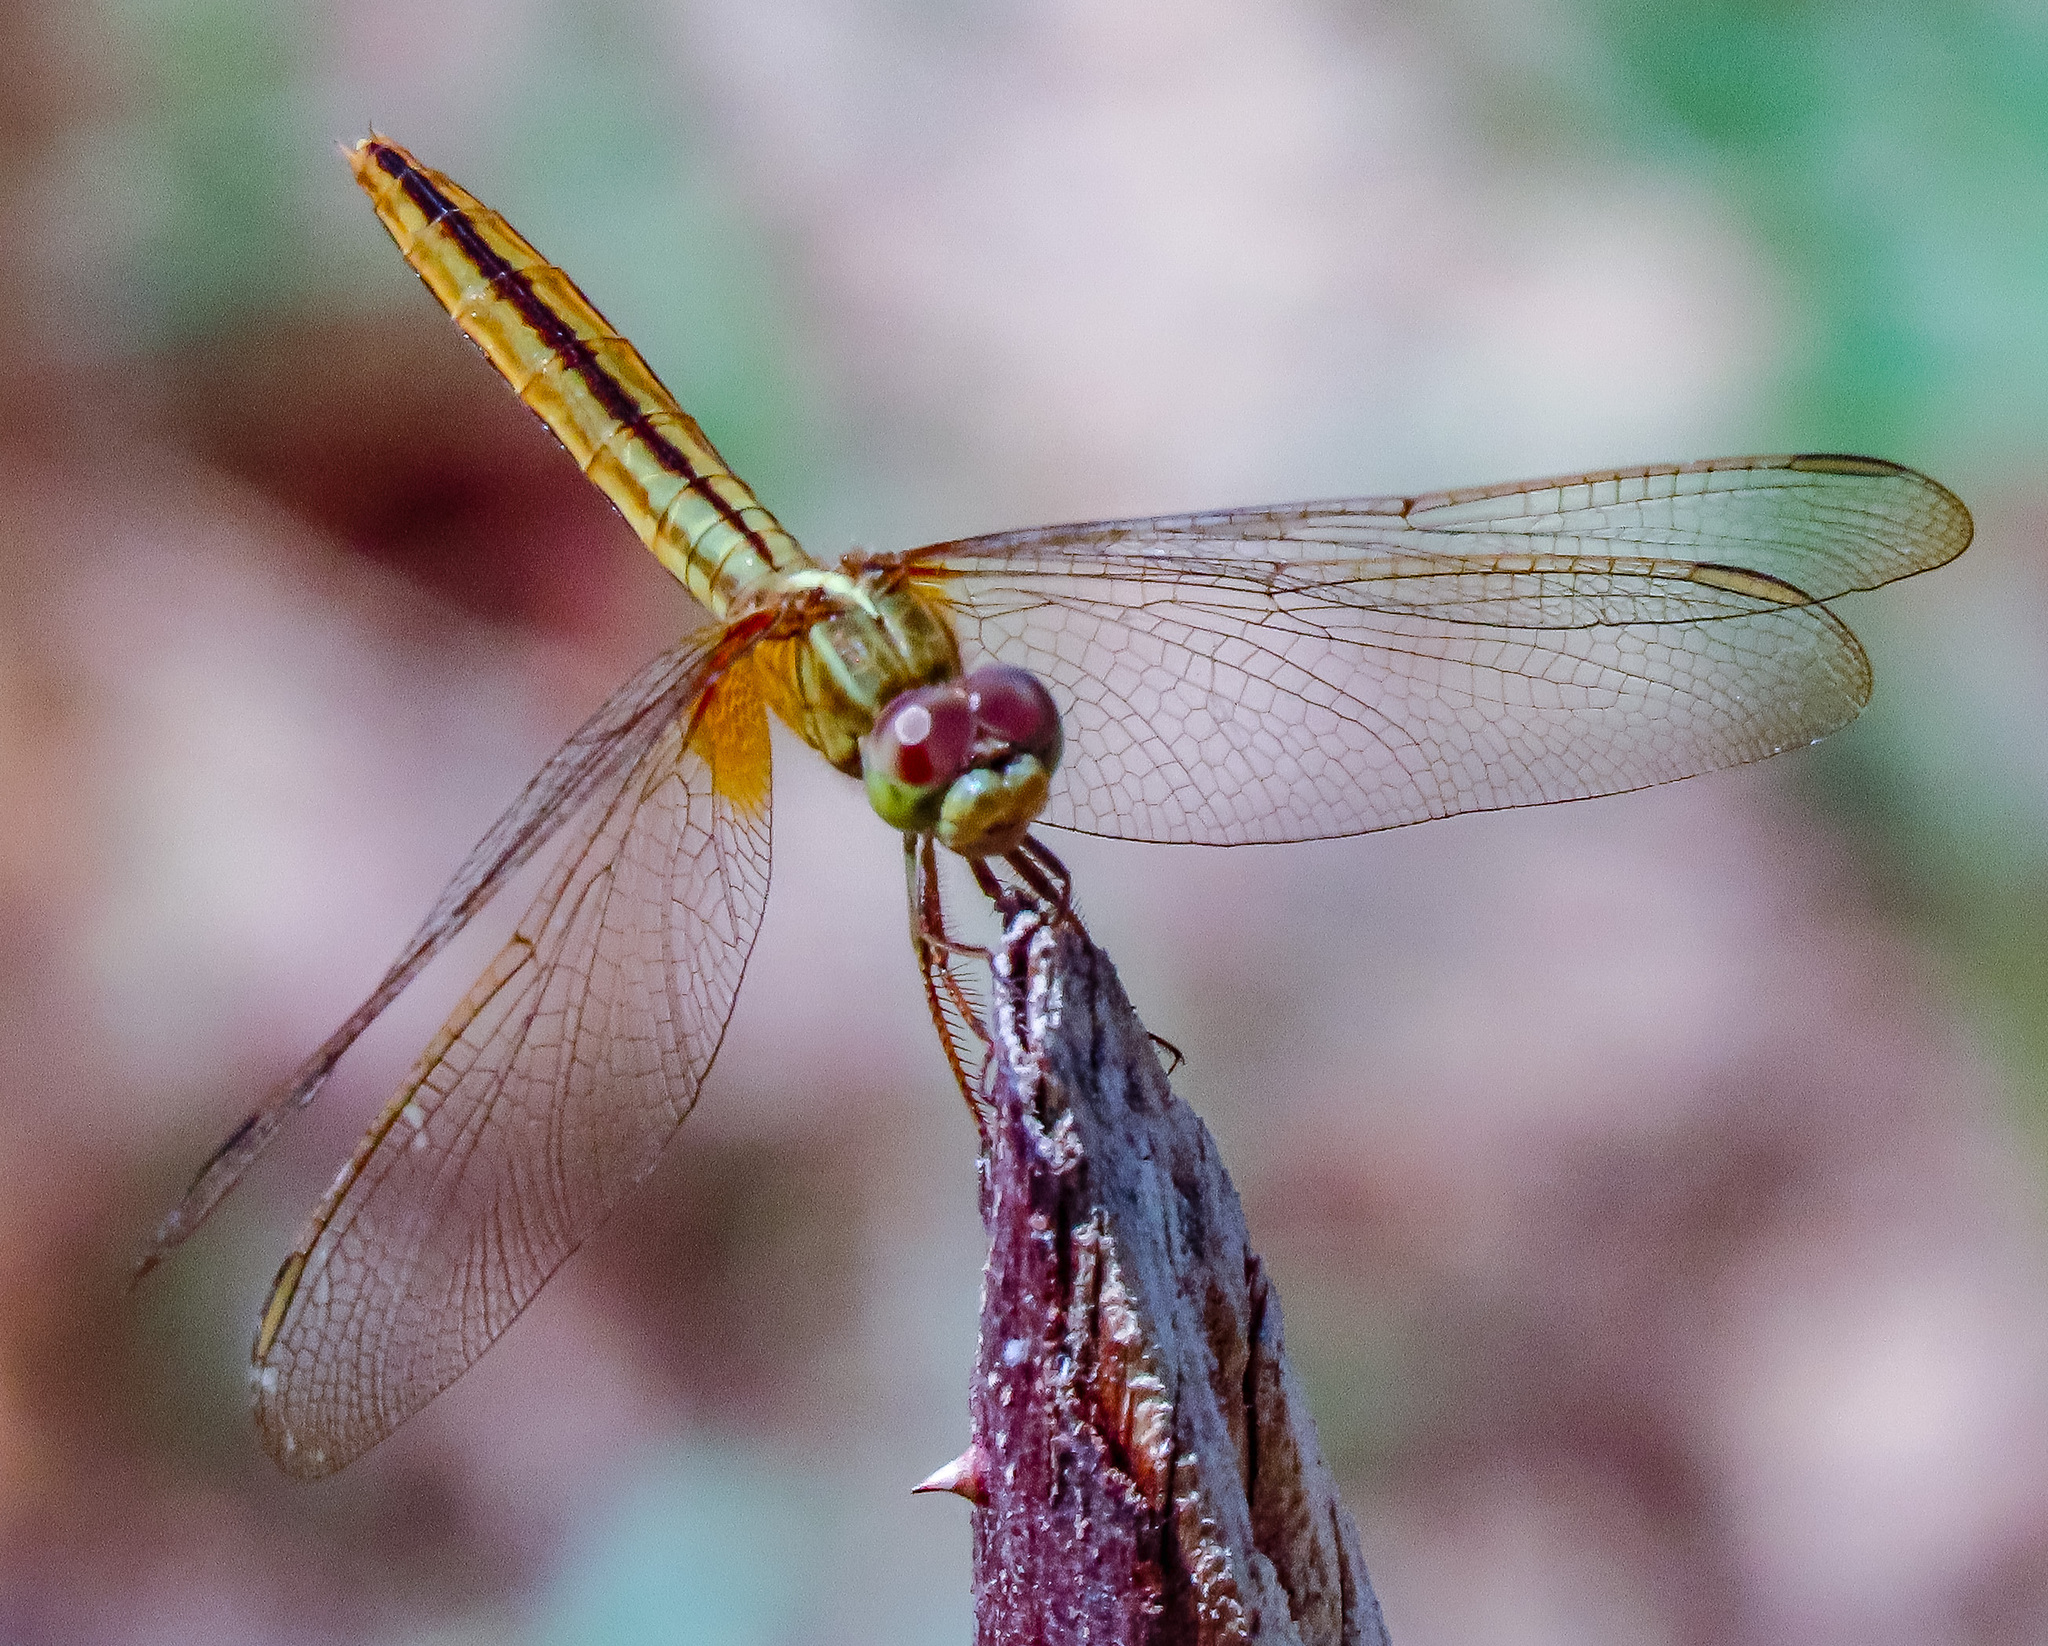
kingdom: Animalia
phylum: Arthropoda
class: Insecta
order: Odonata
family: Libellulidae
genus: Crocothemis
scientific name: Crocothemis servilia
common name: Scarlet skimmer
